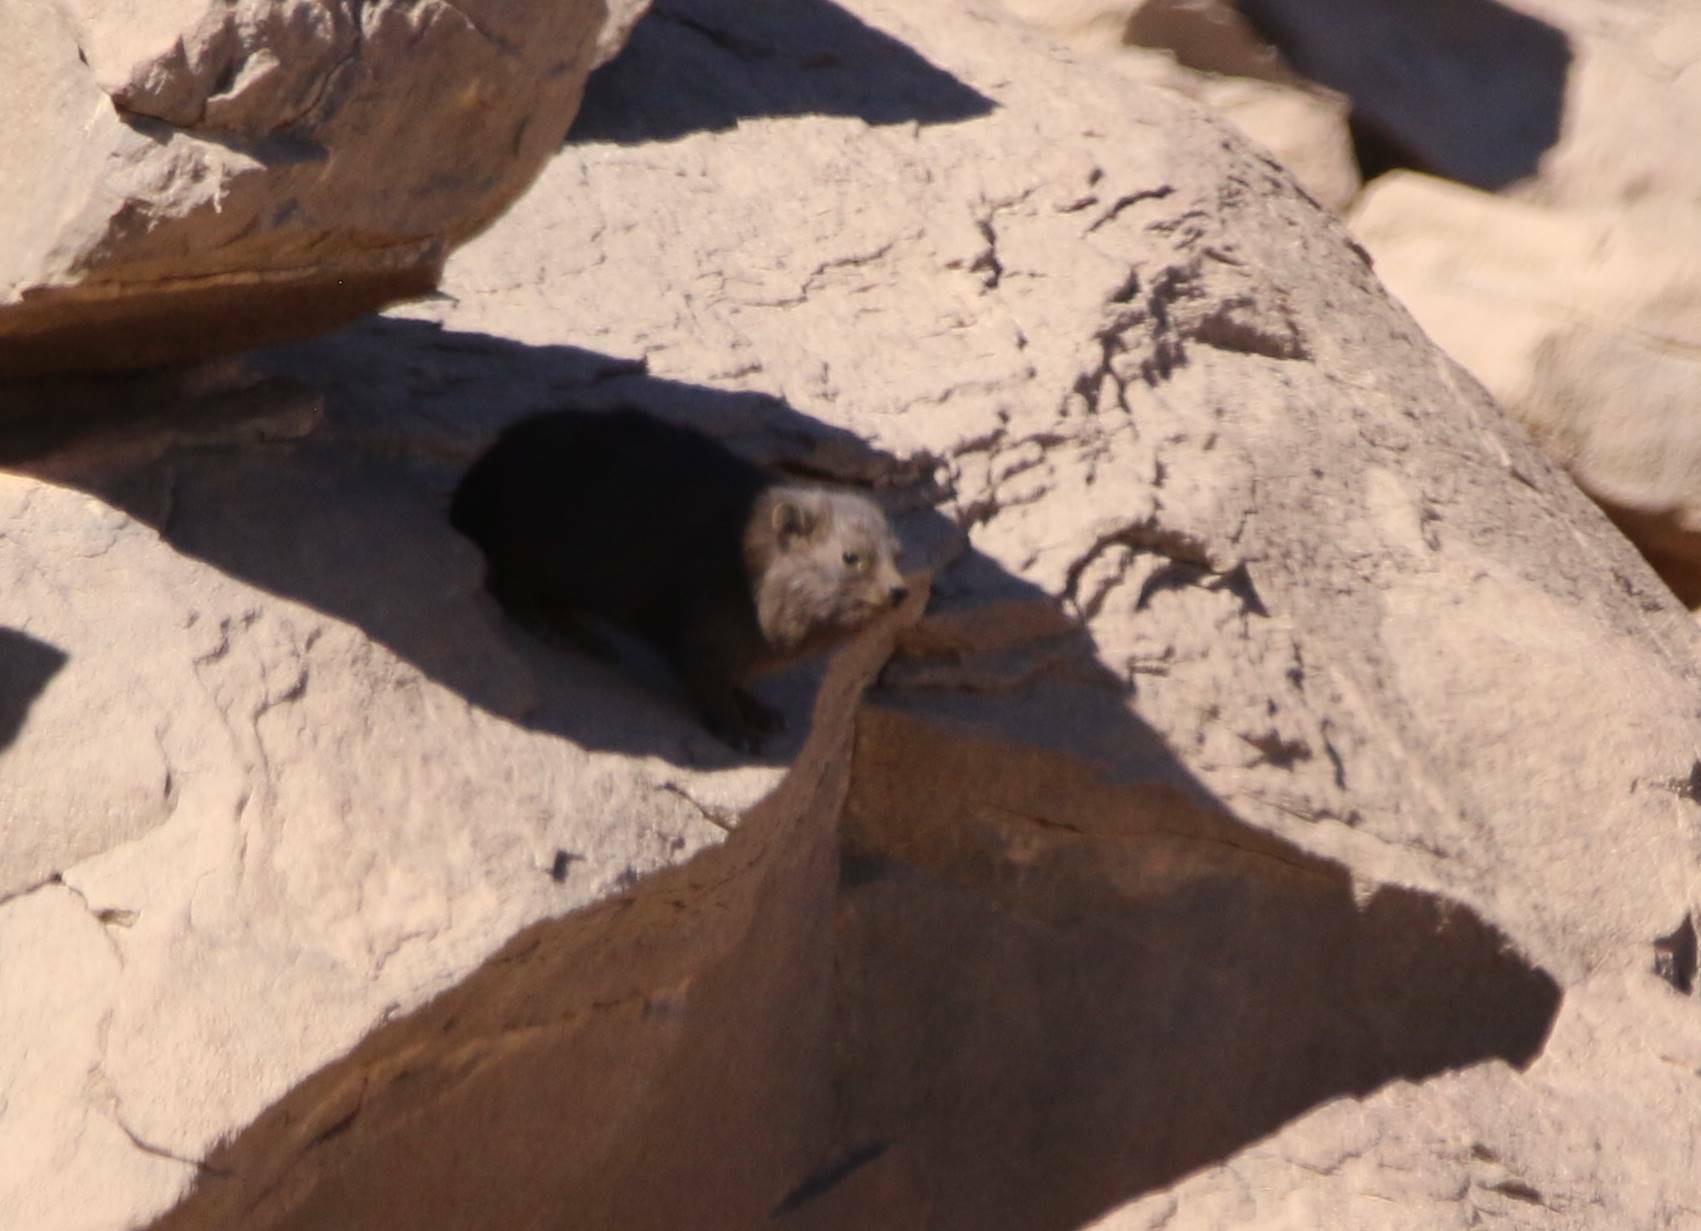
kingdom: Animalia
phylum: Chordata
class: Mammalia
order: Hyracoidea
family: Procaviidae
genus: Procavia
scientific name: Procavia capensis
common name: Rock hyrax
